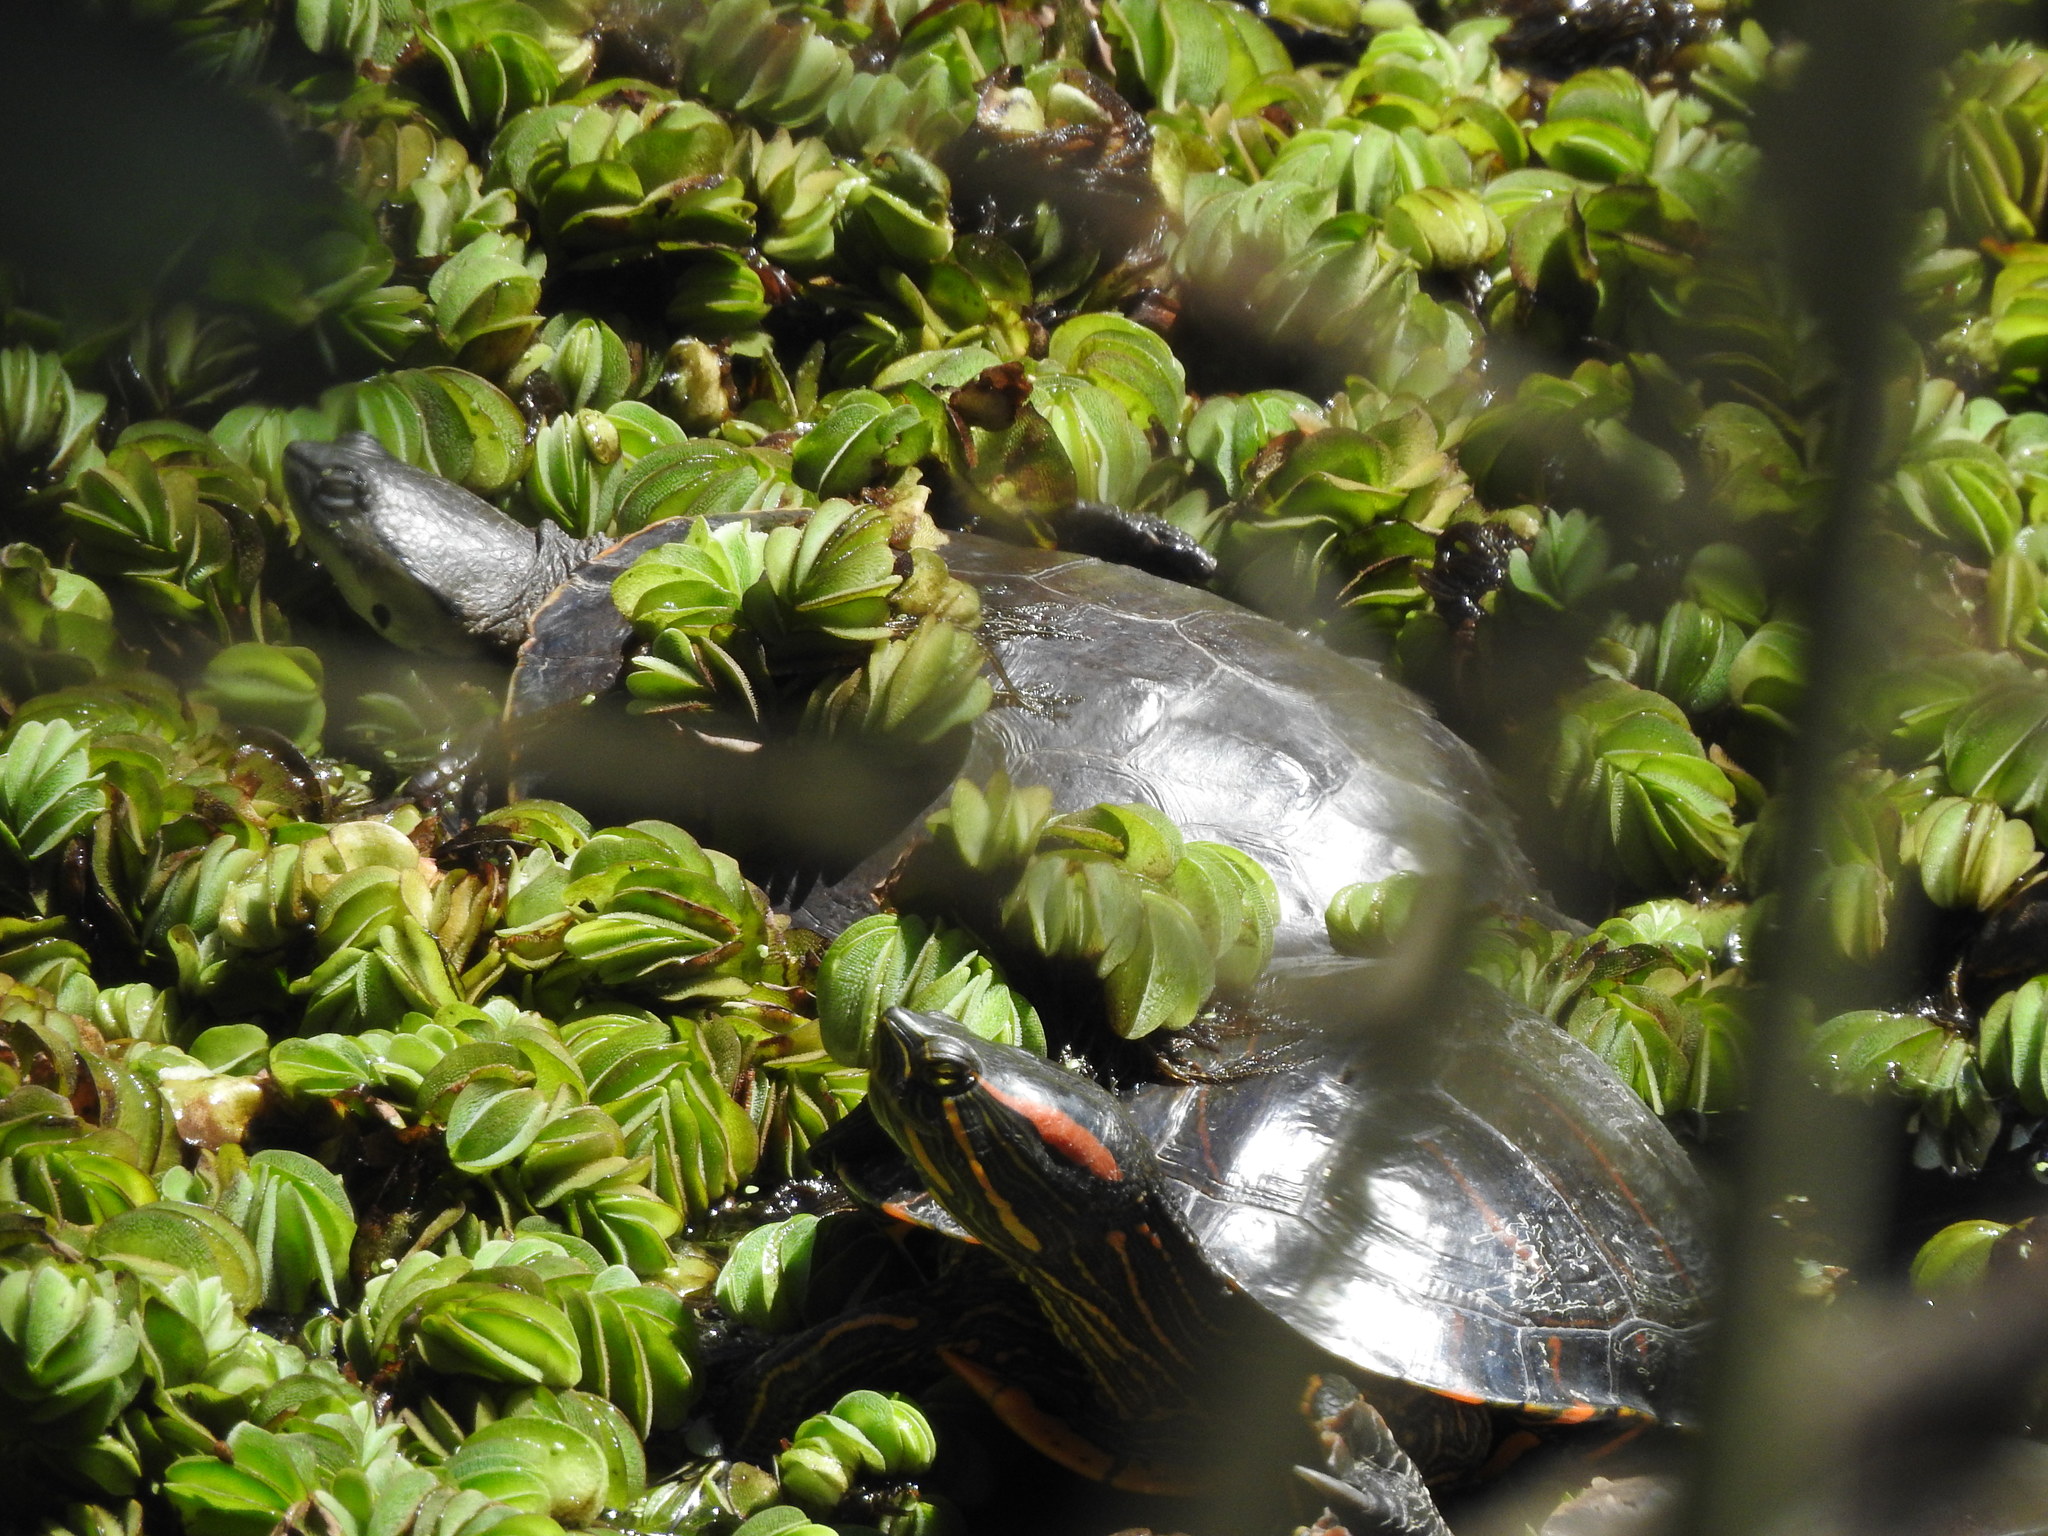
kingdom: Animalia
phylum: Chordata
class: Testudines
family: Emydidae
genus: Trachemys
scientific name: Trachemys dorbigni
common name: Black-bellied slider
